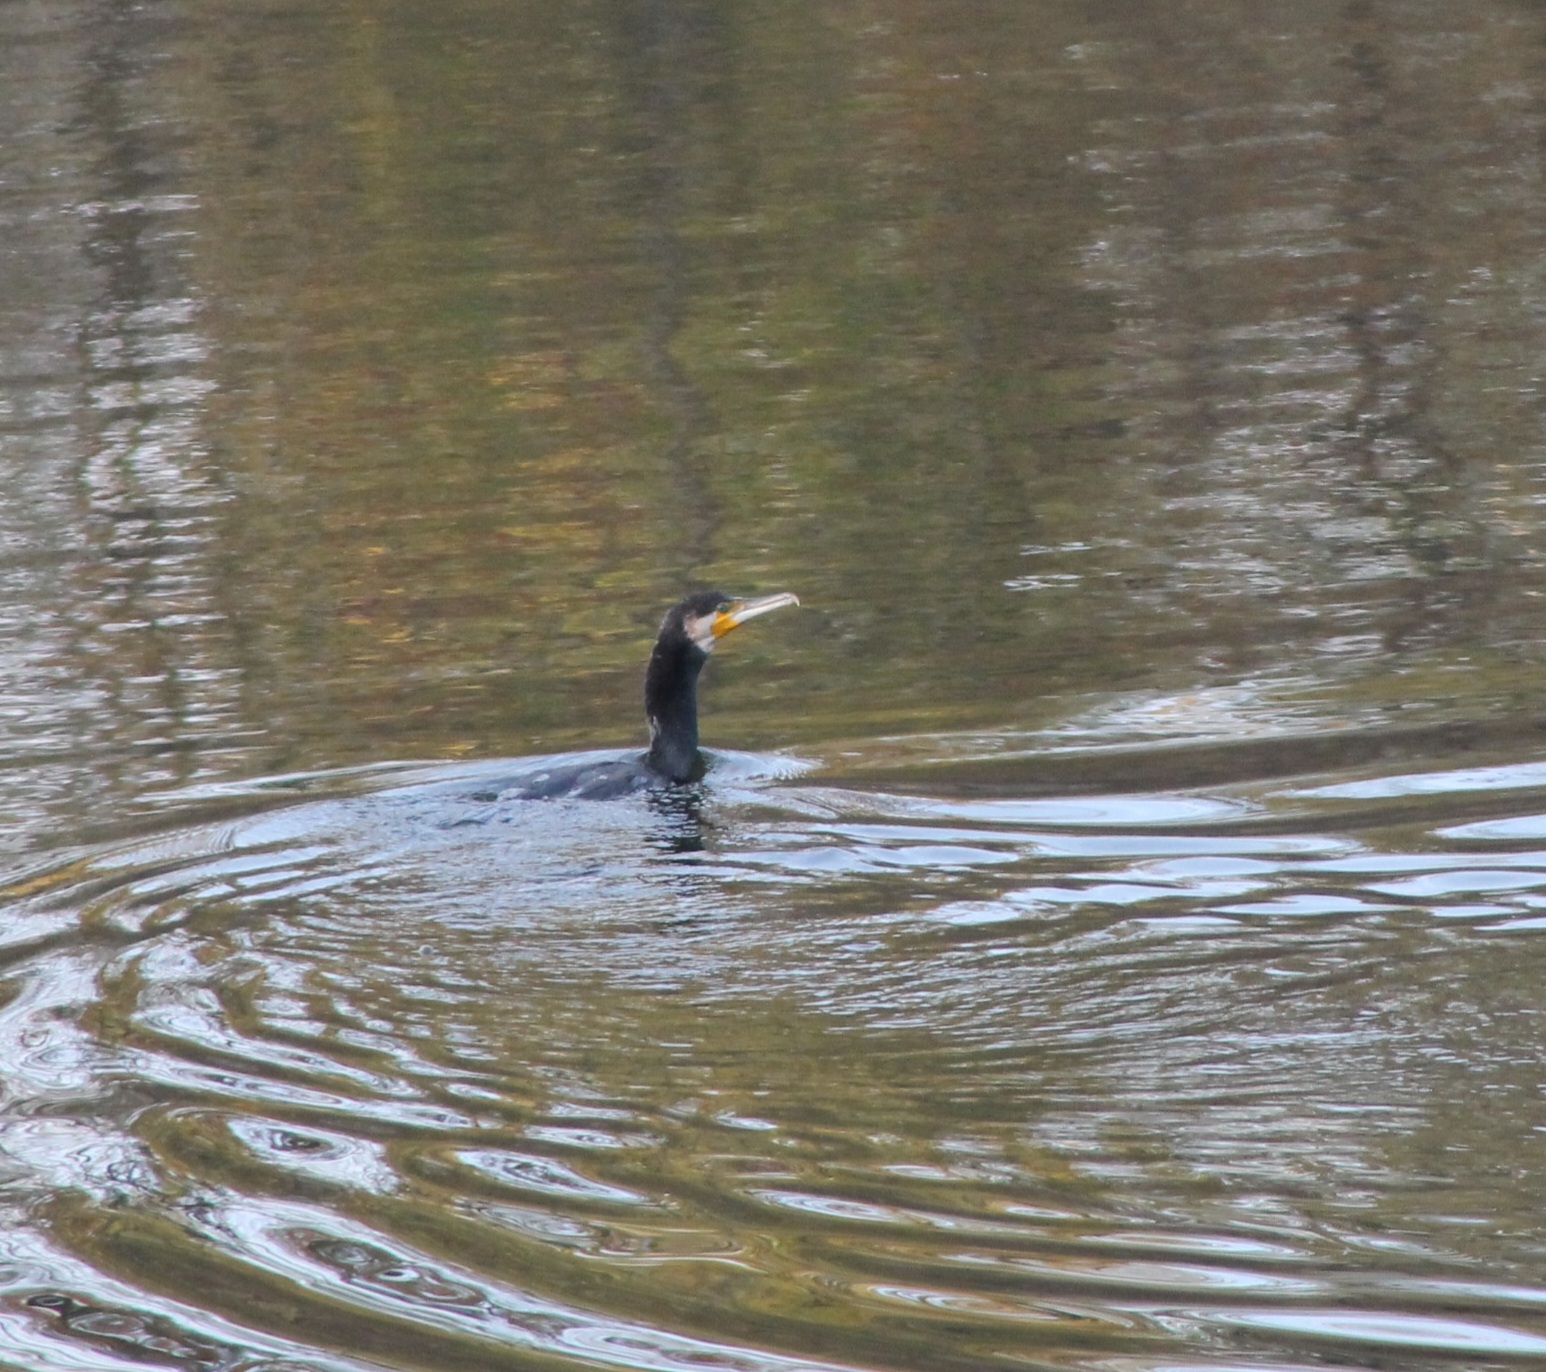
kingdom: Animalia
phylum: Chordata
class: Aves
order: Suliformes
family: Phalacrocoracidae
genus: Phalacrocorax
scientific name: Phalacrocorax carbo
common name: Great cormorant
